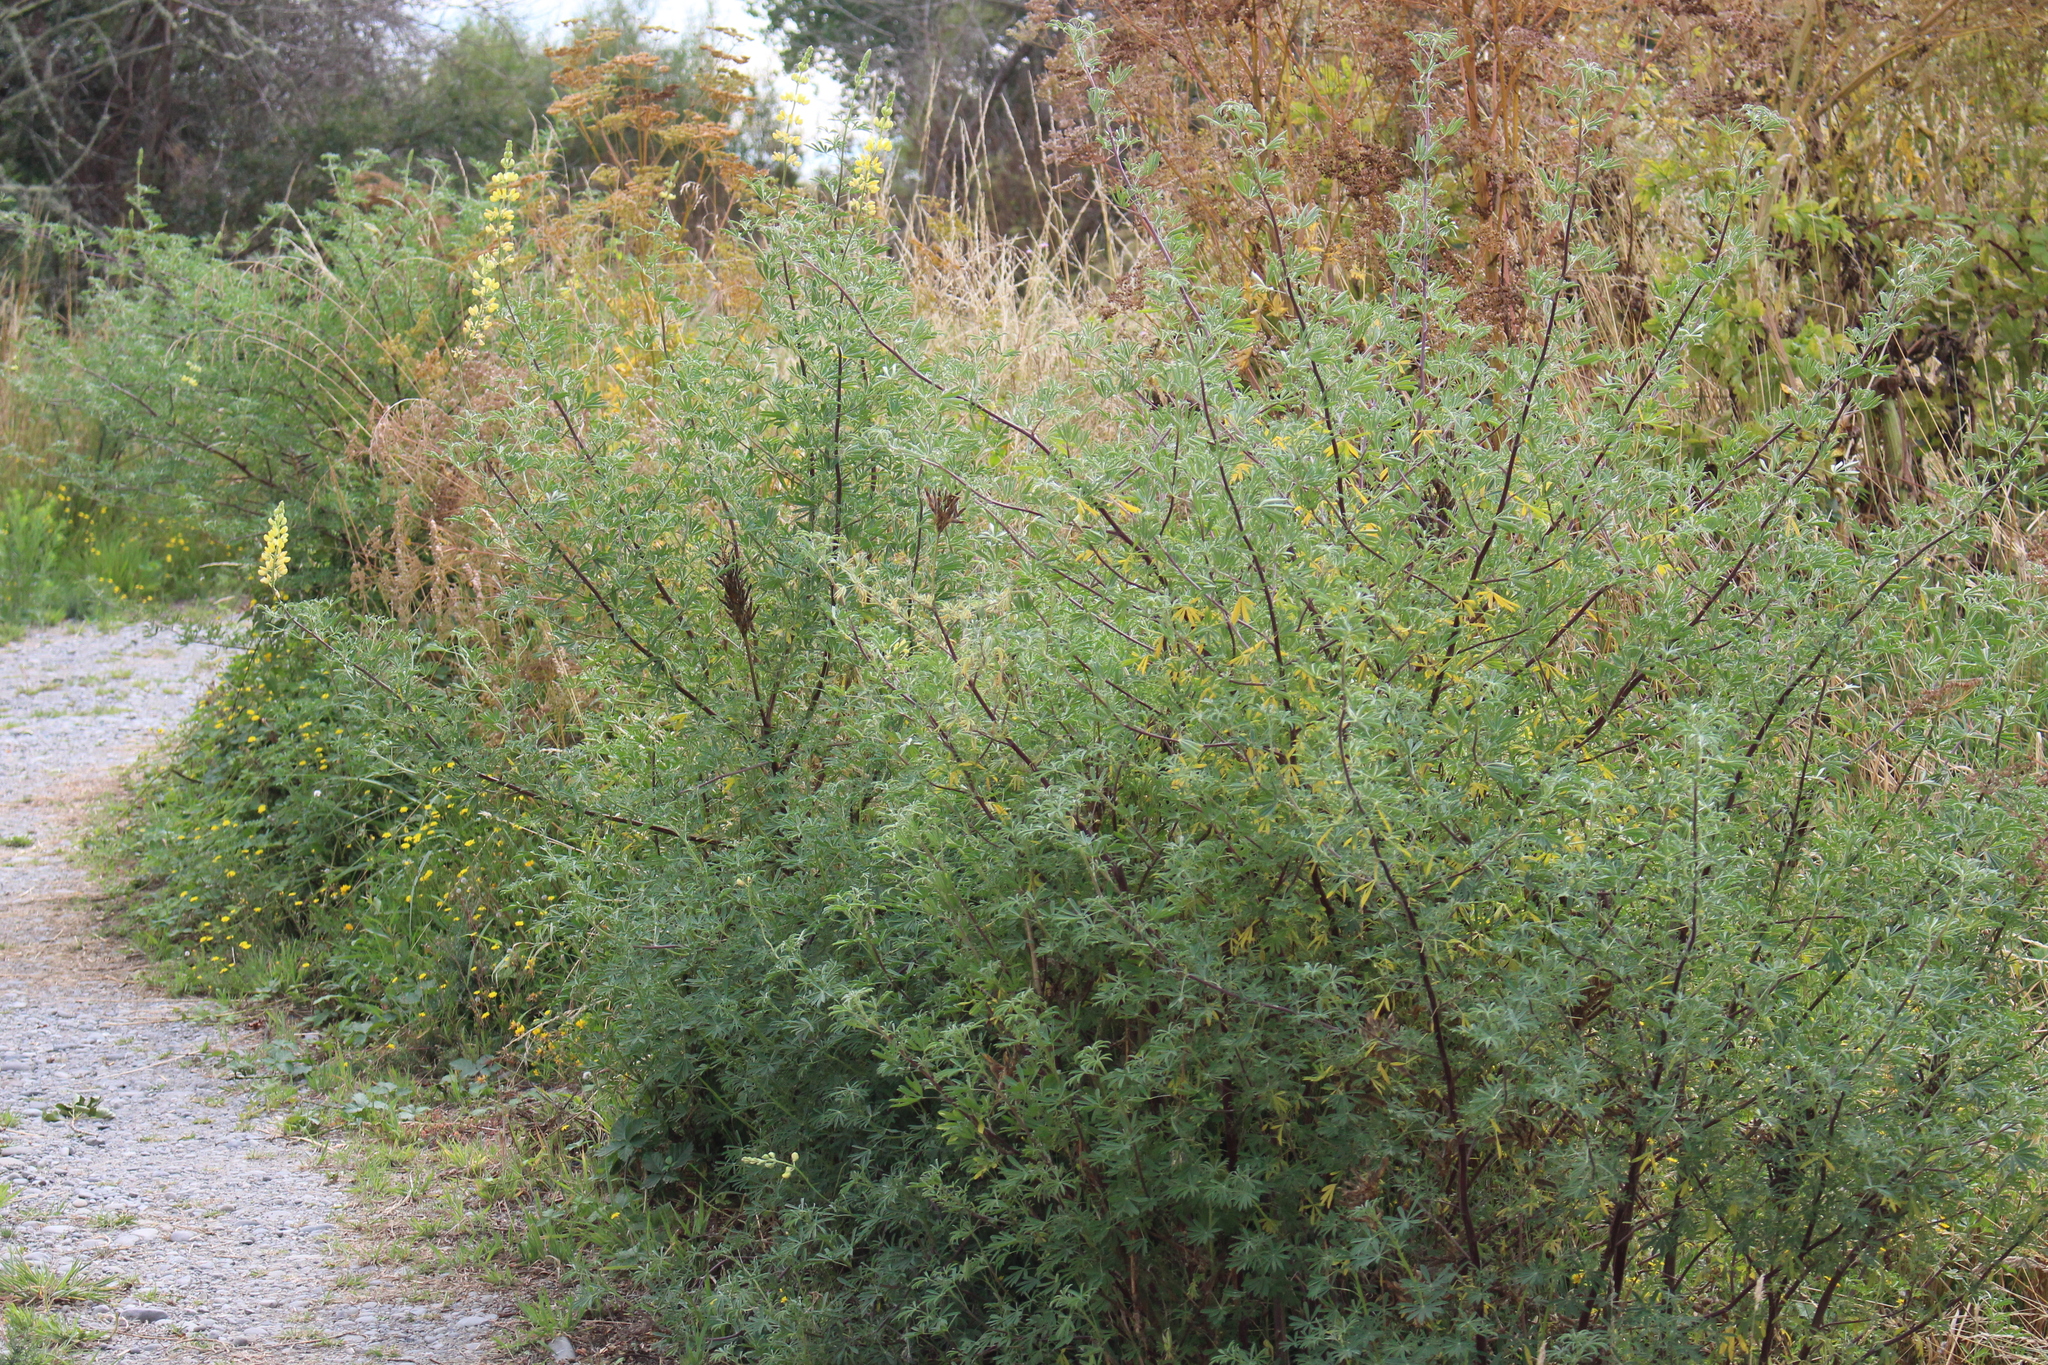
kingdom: Plantae
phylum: Tracheophyta
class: Magnoliopsida
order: Fabales
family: Fabaceae
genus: Lupinus
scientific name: Lupinus arboreus
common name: Yellow bush lupine
